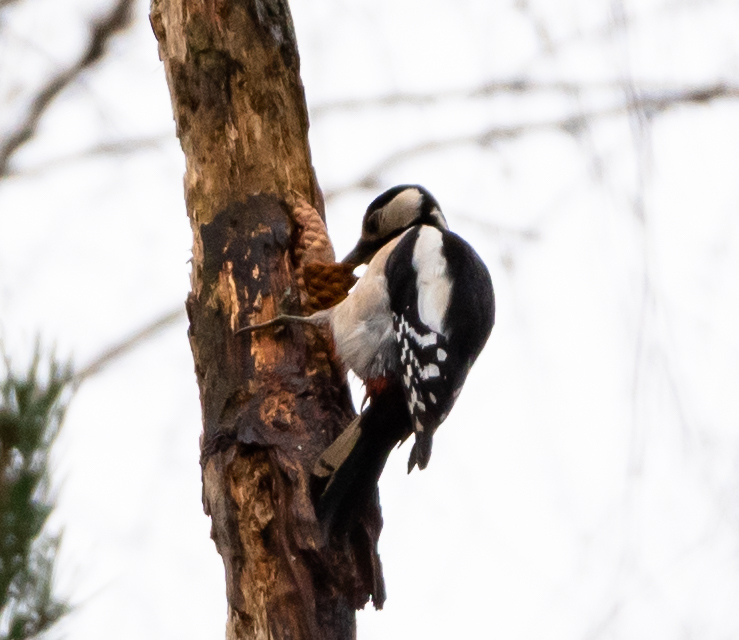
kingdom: Animalia
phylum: Chordata
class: Aves
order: Piciformes
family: Picidae
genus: Dendrocopos
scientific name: Dendrocopos major
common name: Great spotted woodpecker
